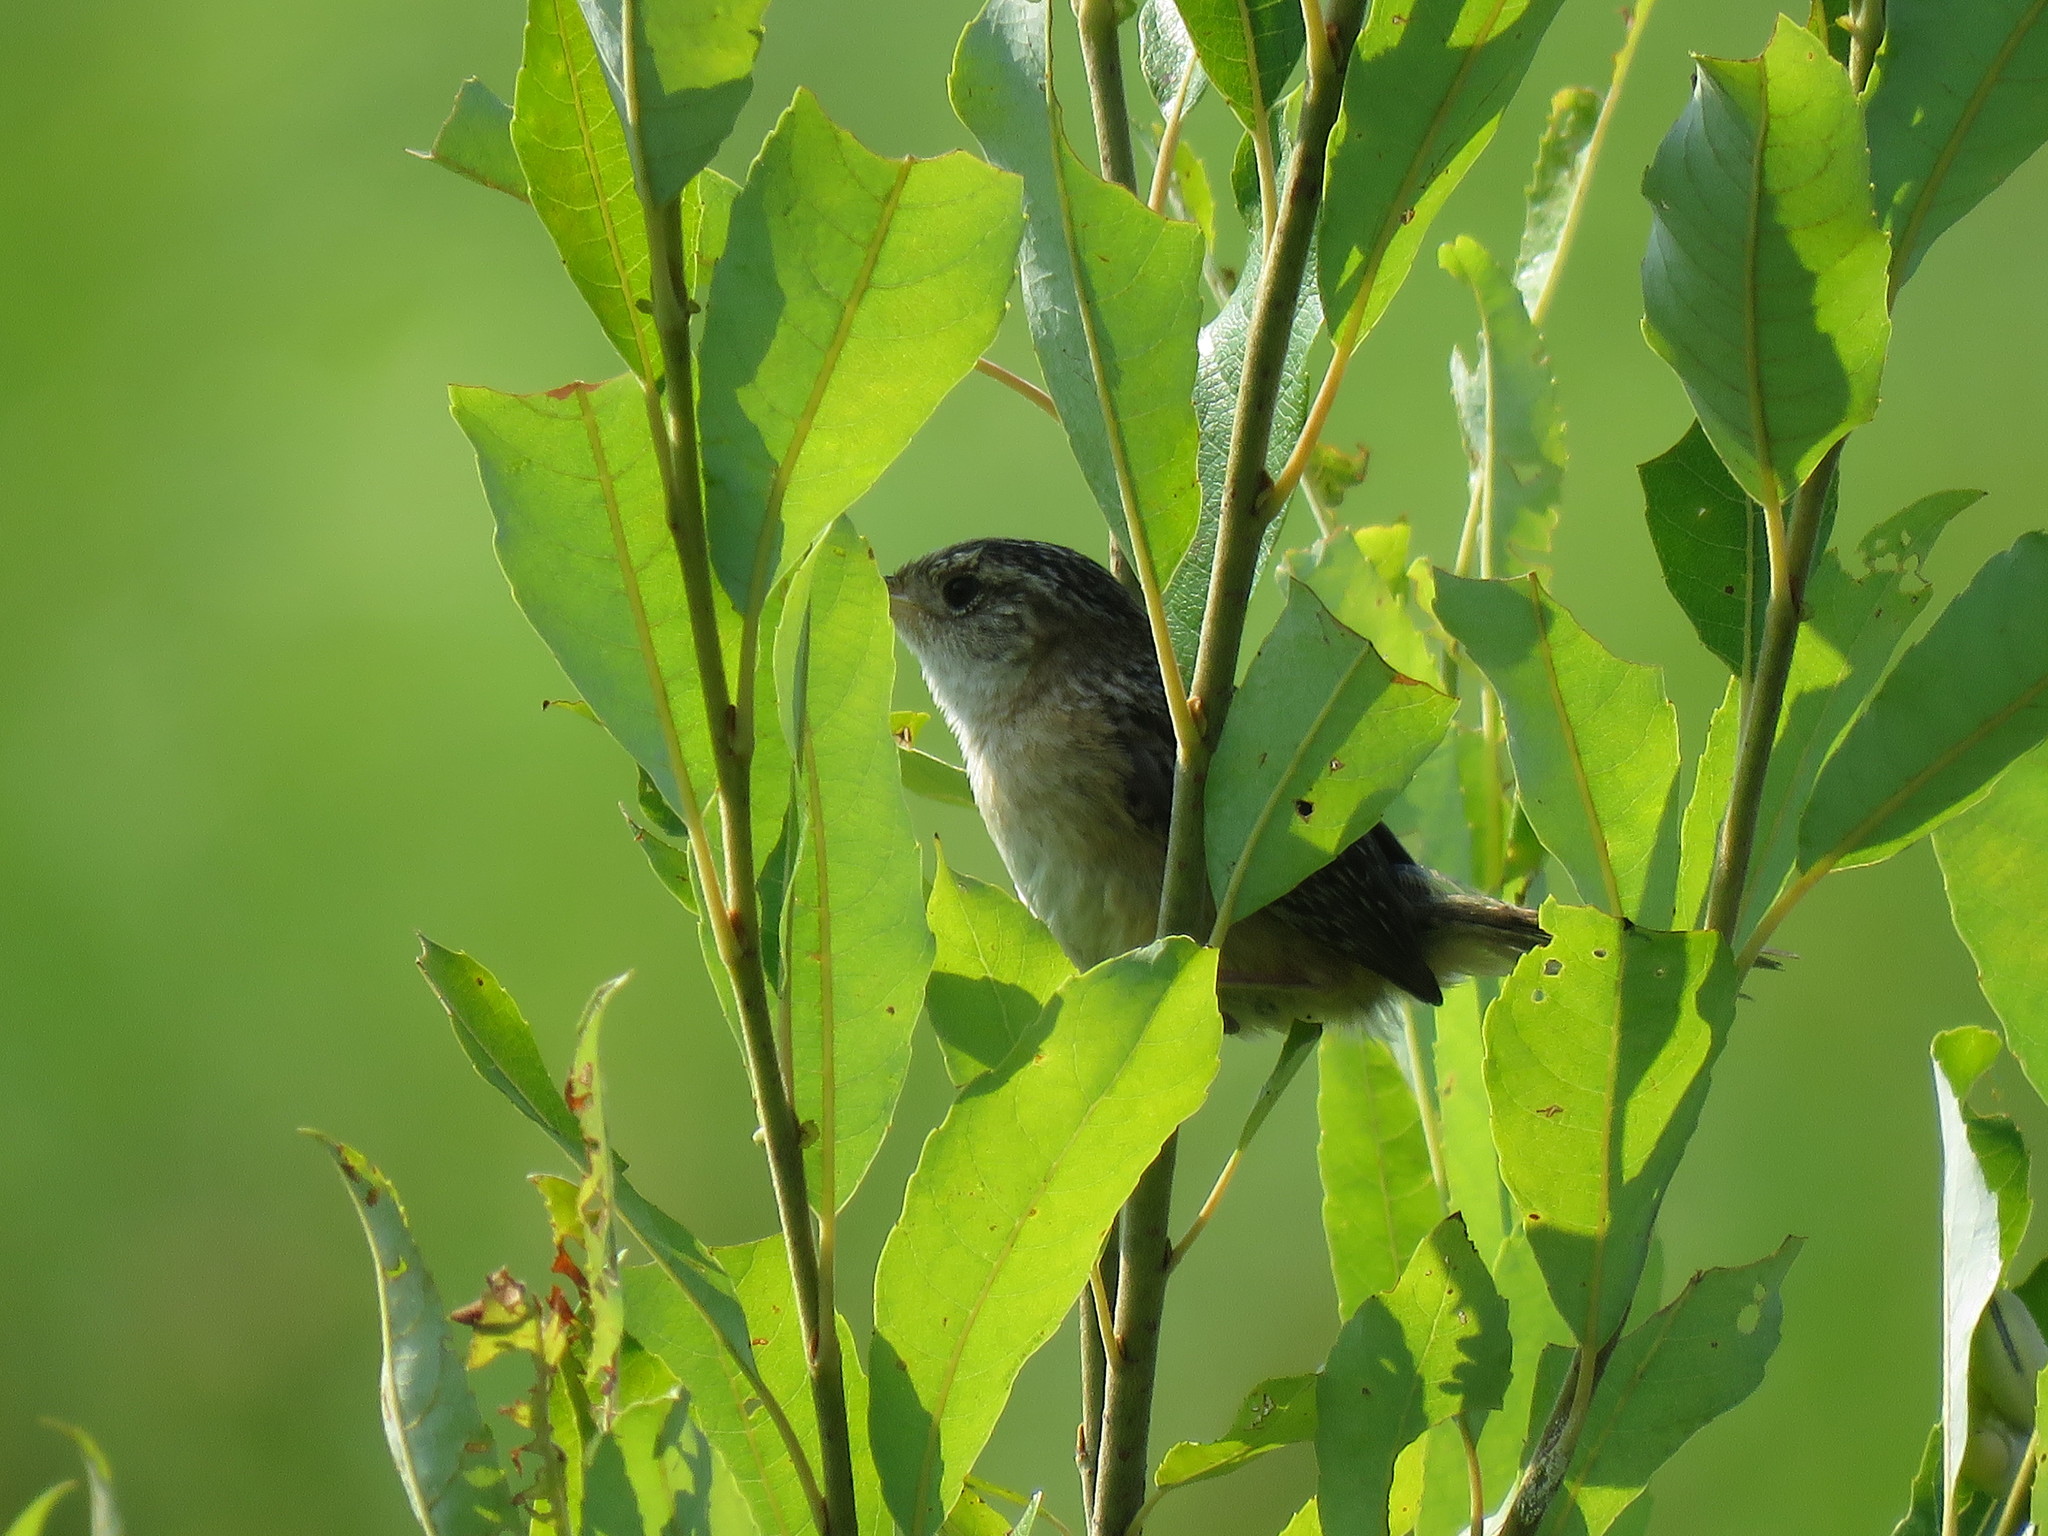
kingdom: Animalia
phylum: Chordata
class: Aves
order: Passeriformes
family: Troglodytidae
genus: Cistothorus
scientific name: Cistothorus platensis
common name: Sedge wren
